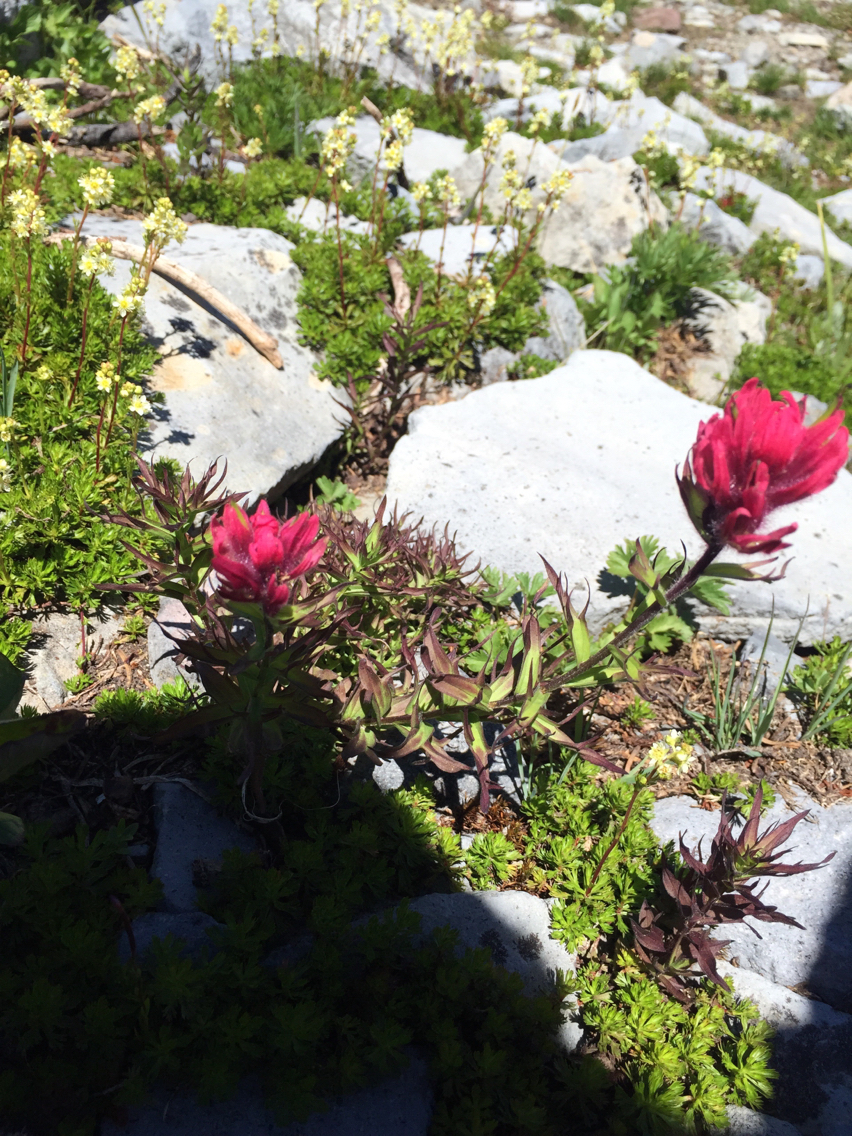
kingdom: Plantae
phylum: Tracheophyta
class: Magnoliopsida
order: Lamiales
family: Orobanchaceae
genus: Castilleja
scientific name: Castilleja parviflora
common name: Mountain paintbrush
